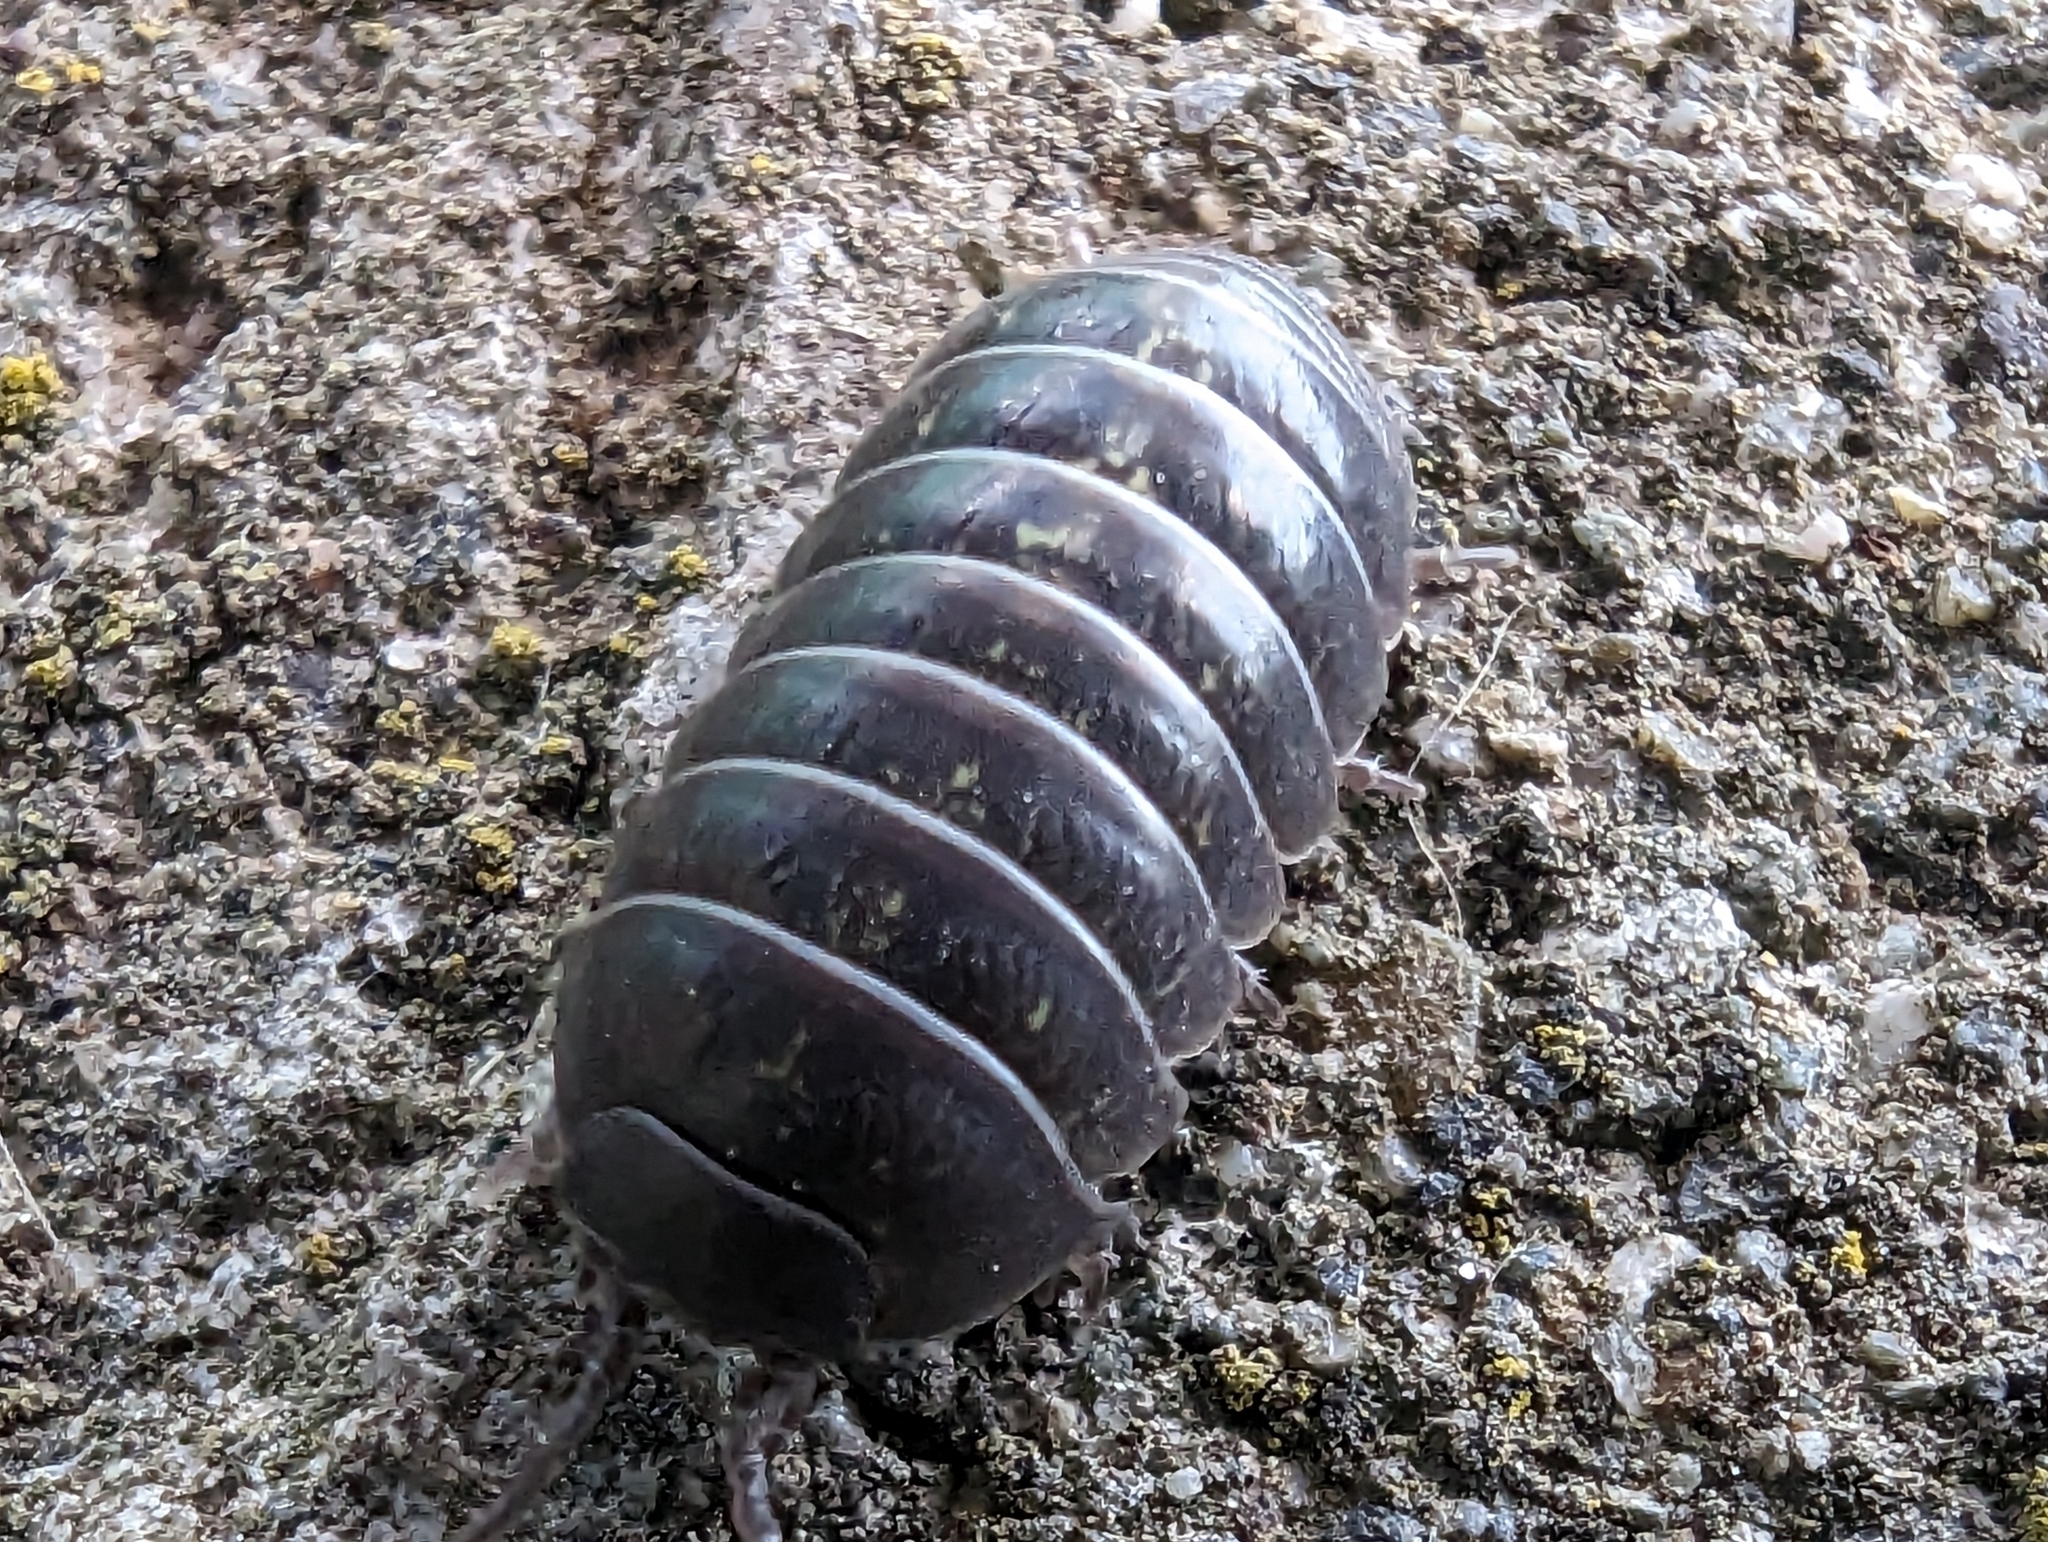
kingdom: Animalia
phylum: Arthropoda
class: Malacostraca
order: Isopoda
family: Armadillidiidae
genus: Armadillidium
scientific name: Armadillidium vulgare
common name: Common pill woodlouse
